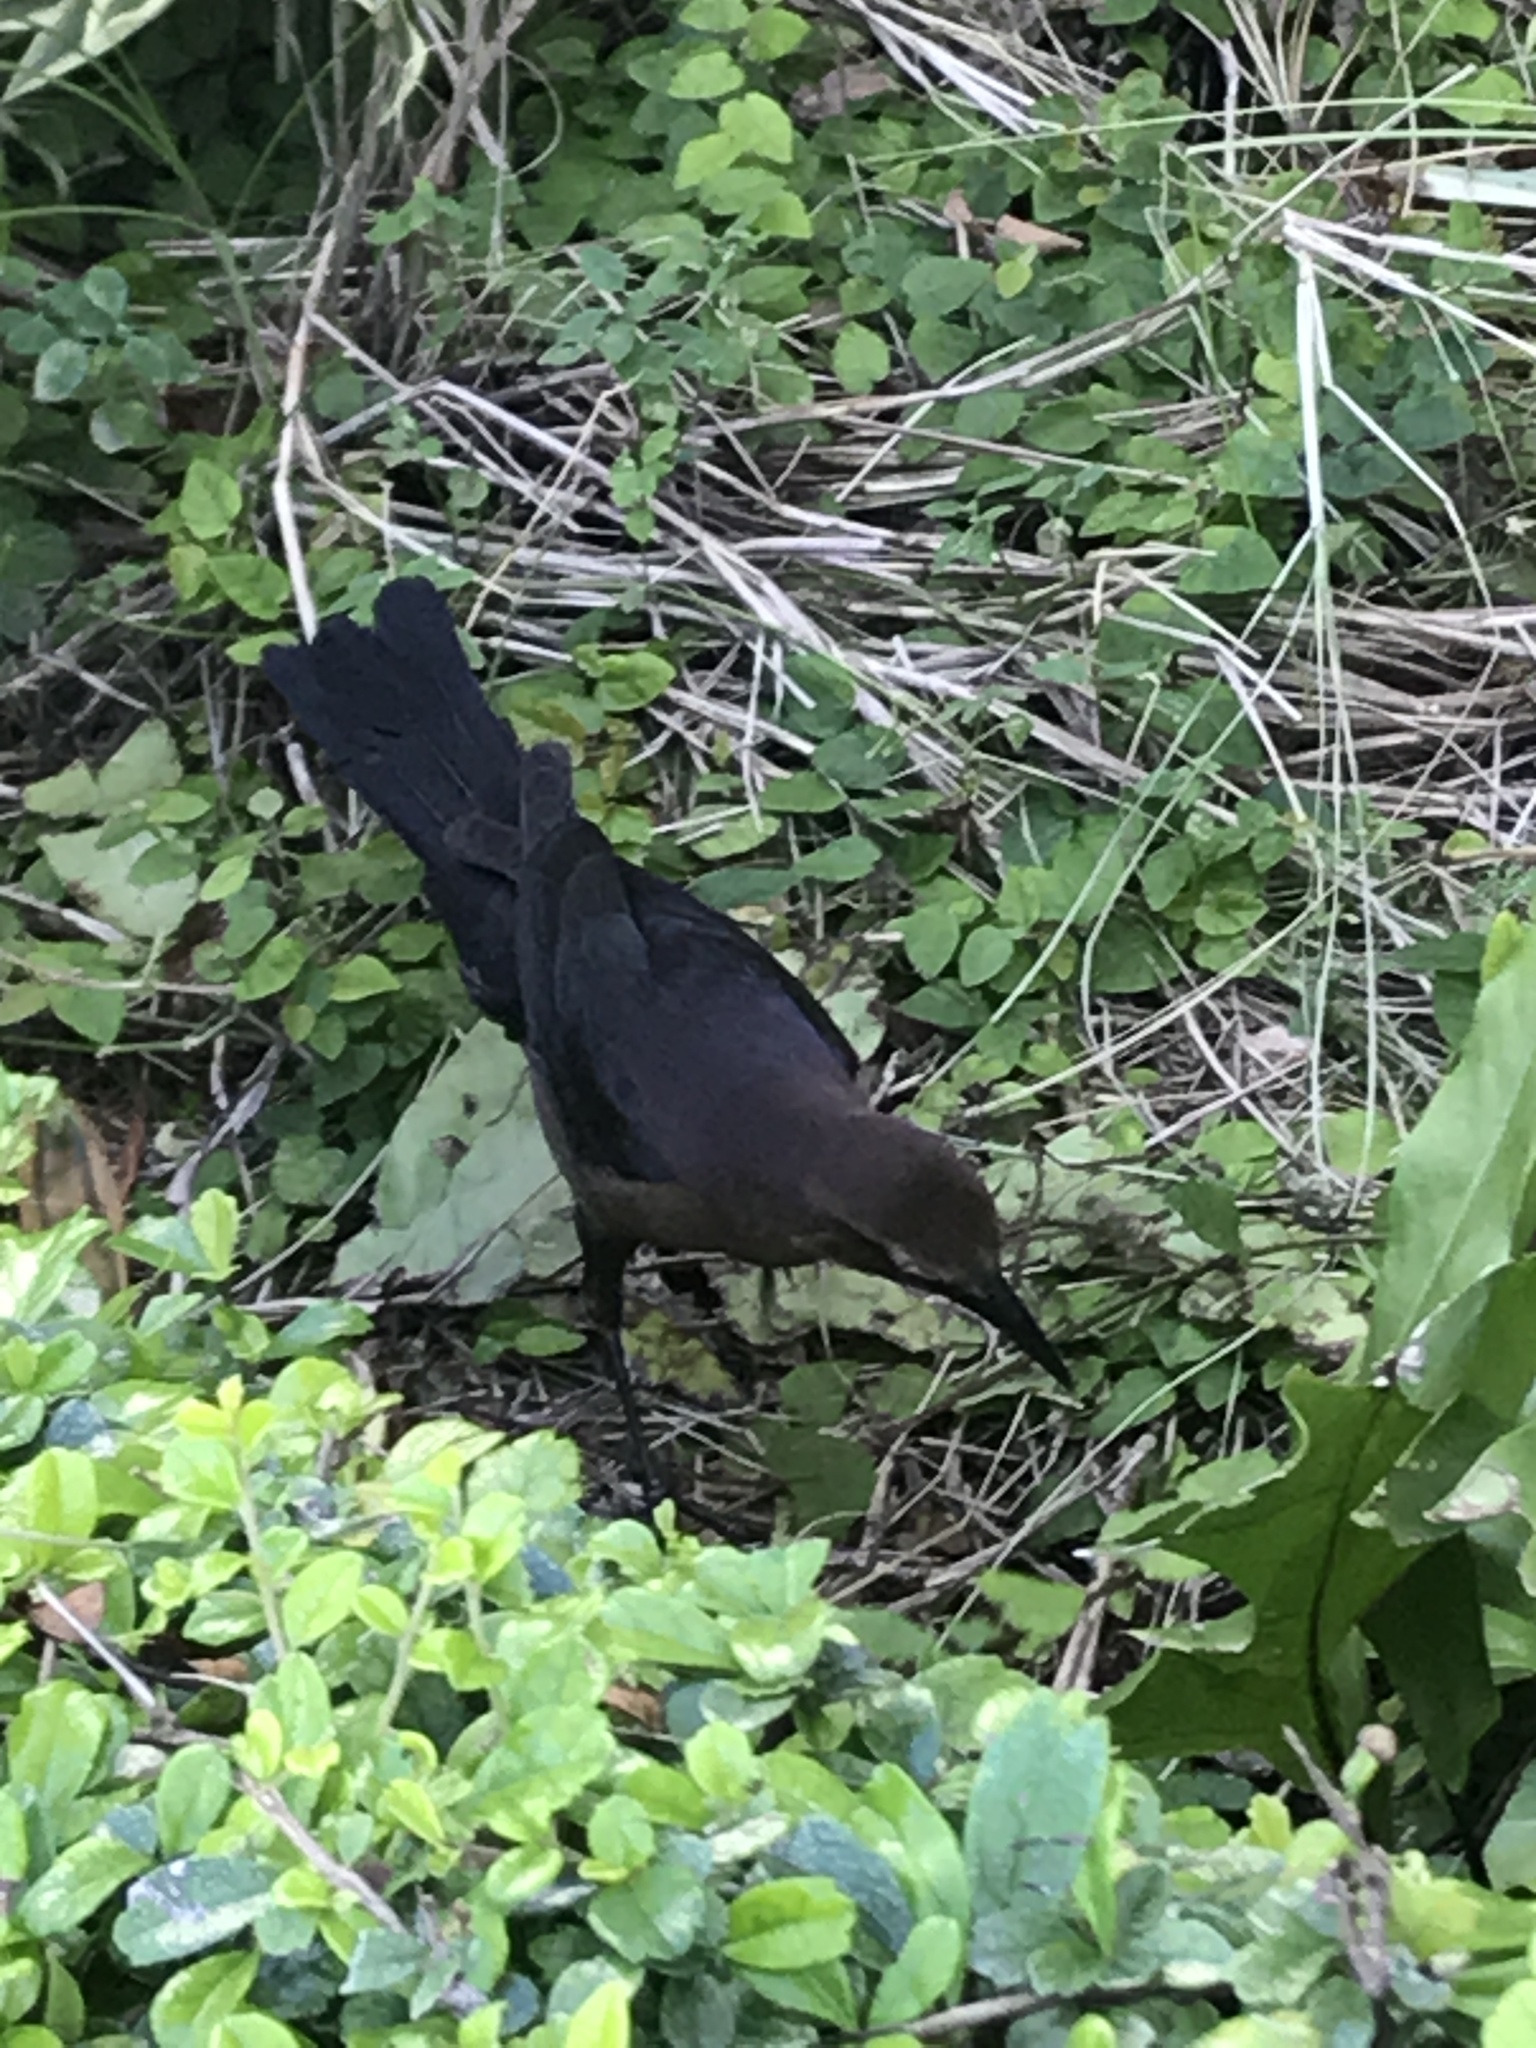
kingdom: Animalia
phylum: Chordata
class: Aves
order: Passeriformes
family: Icteridae
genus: Quiscalus
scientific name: Quiscalus major
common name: Boat-tailed grackle
